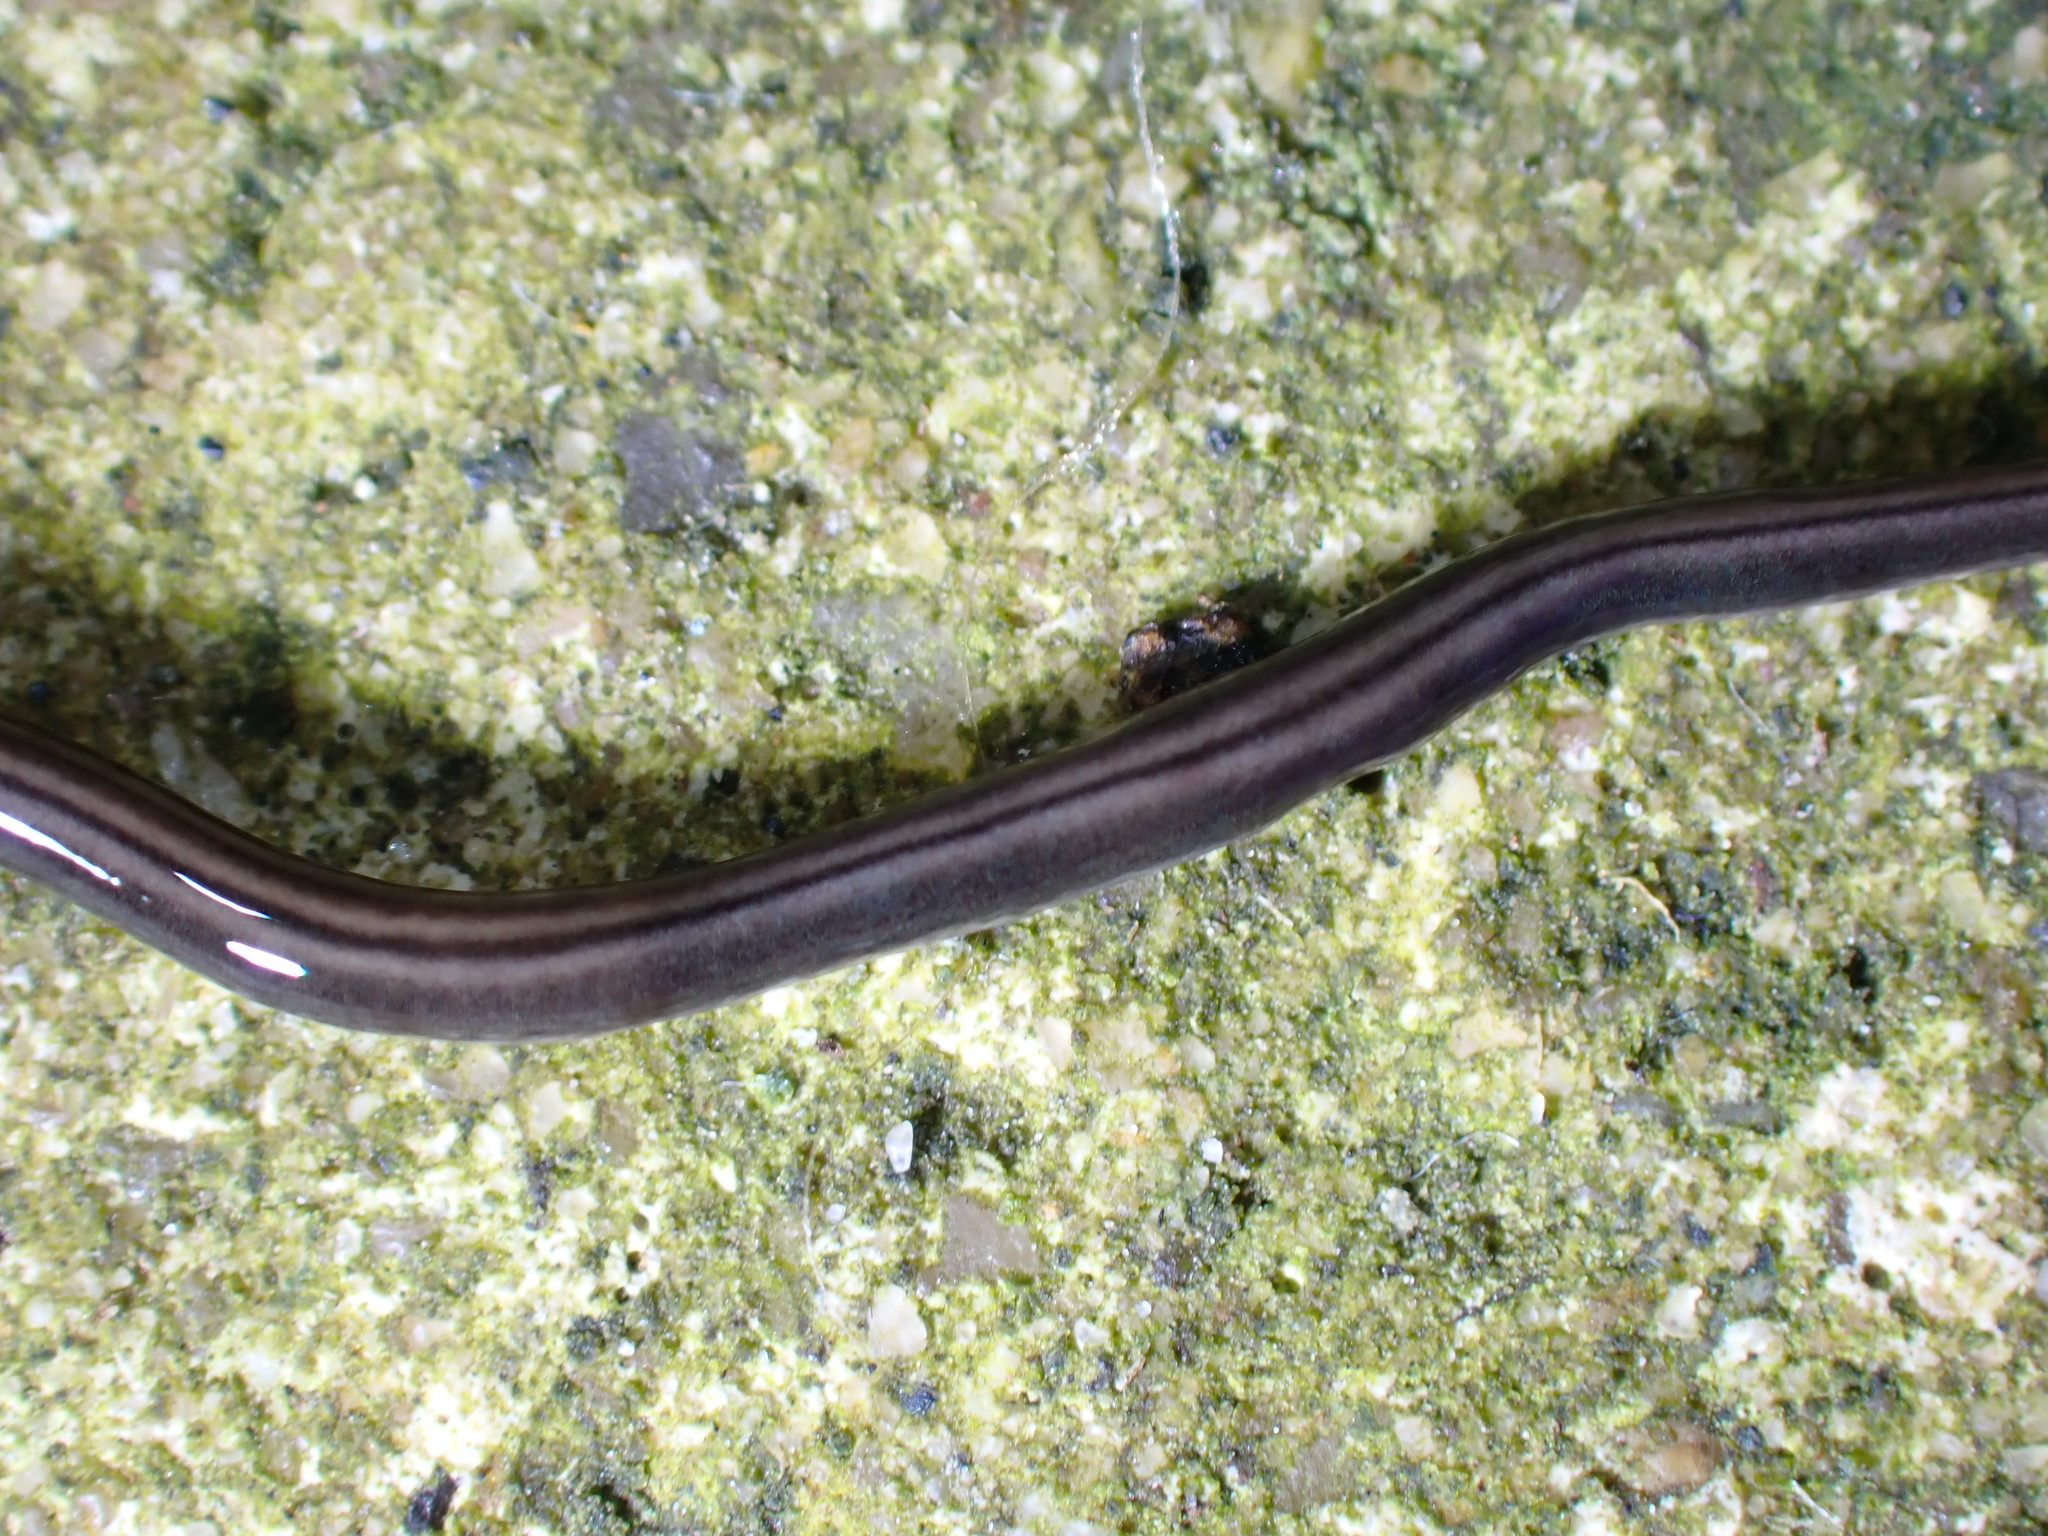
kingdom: Animalia
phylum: Platyhelminthes
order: Tricladida
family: Geoplanidae
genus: Parakontikia
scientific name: Parakontikia ventrolineata
